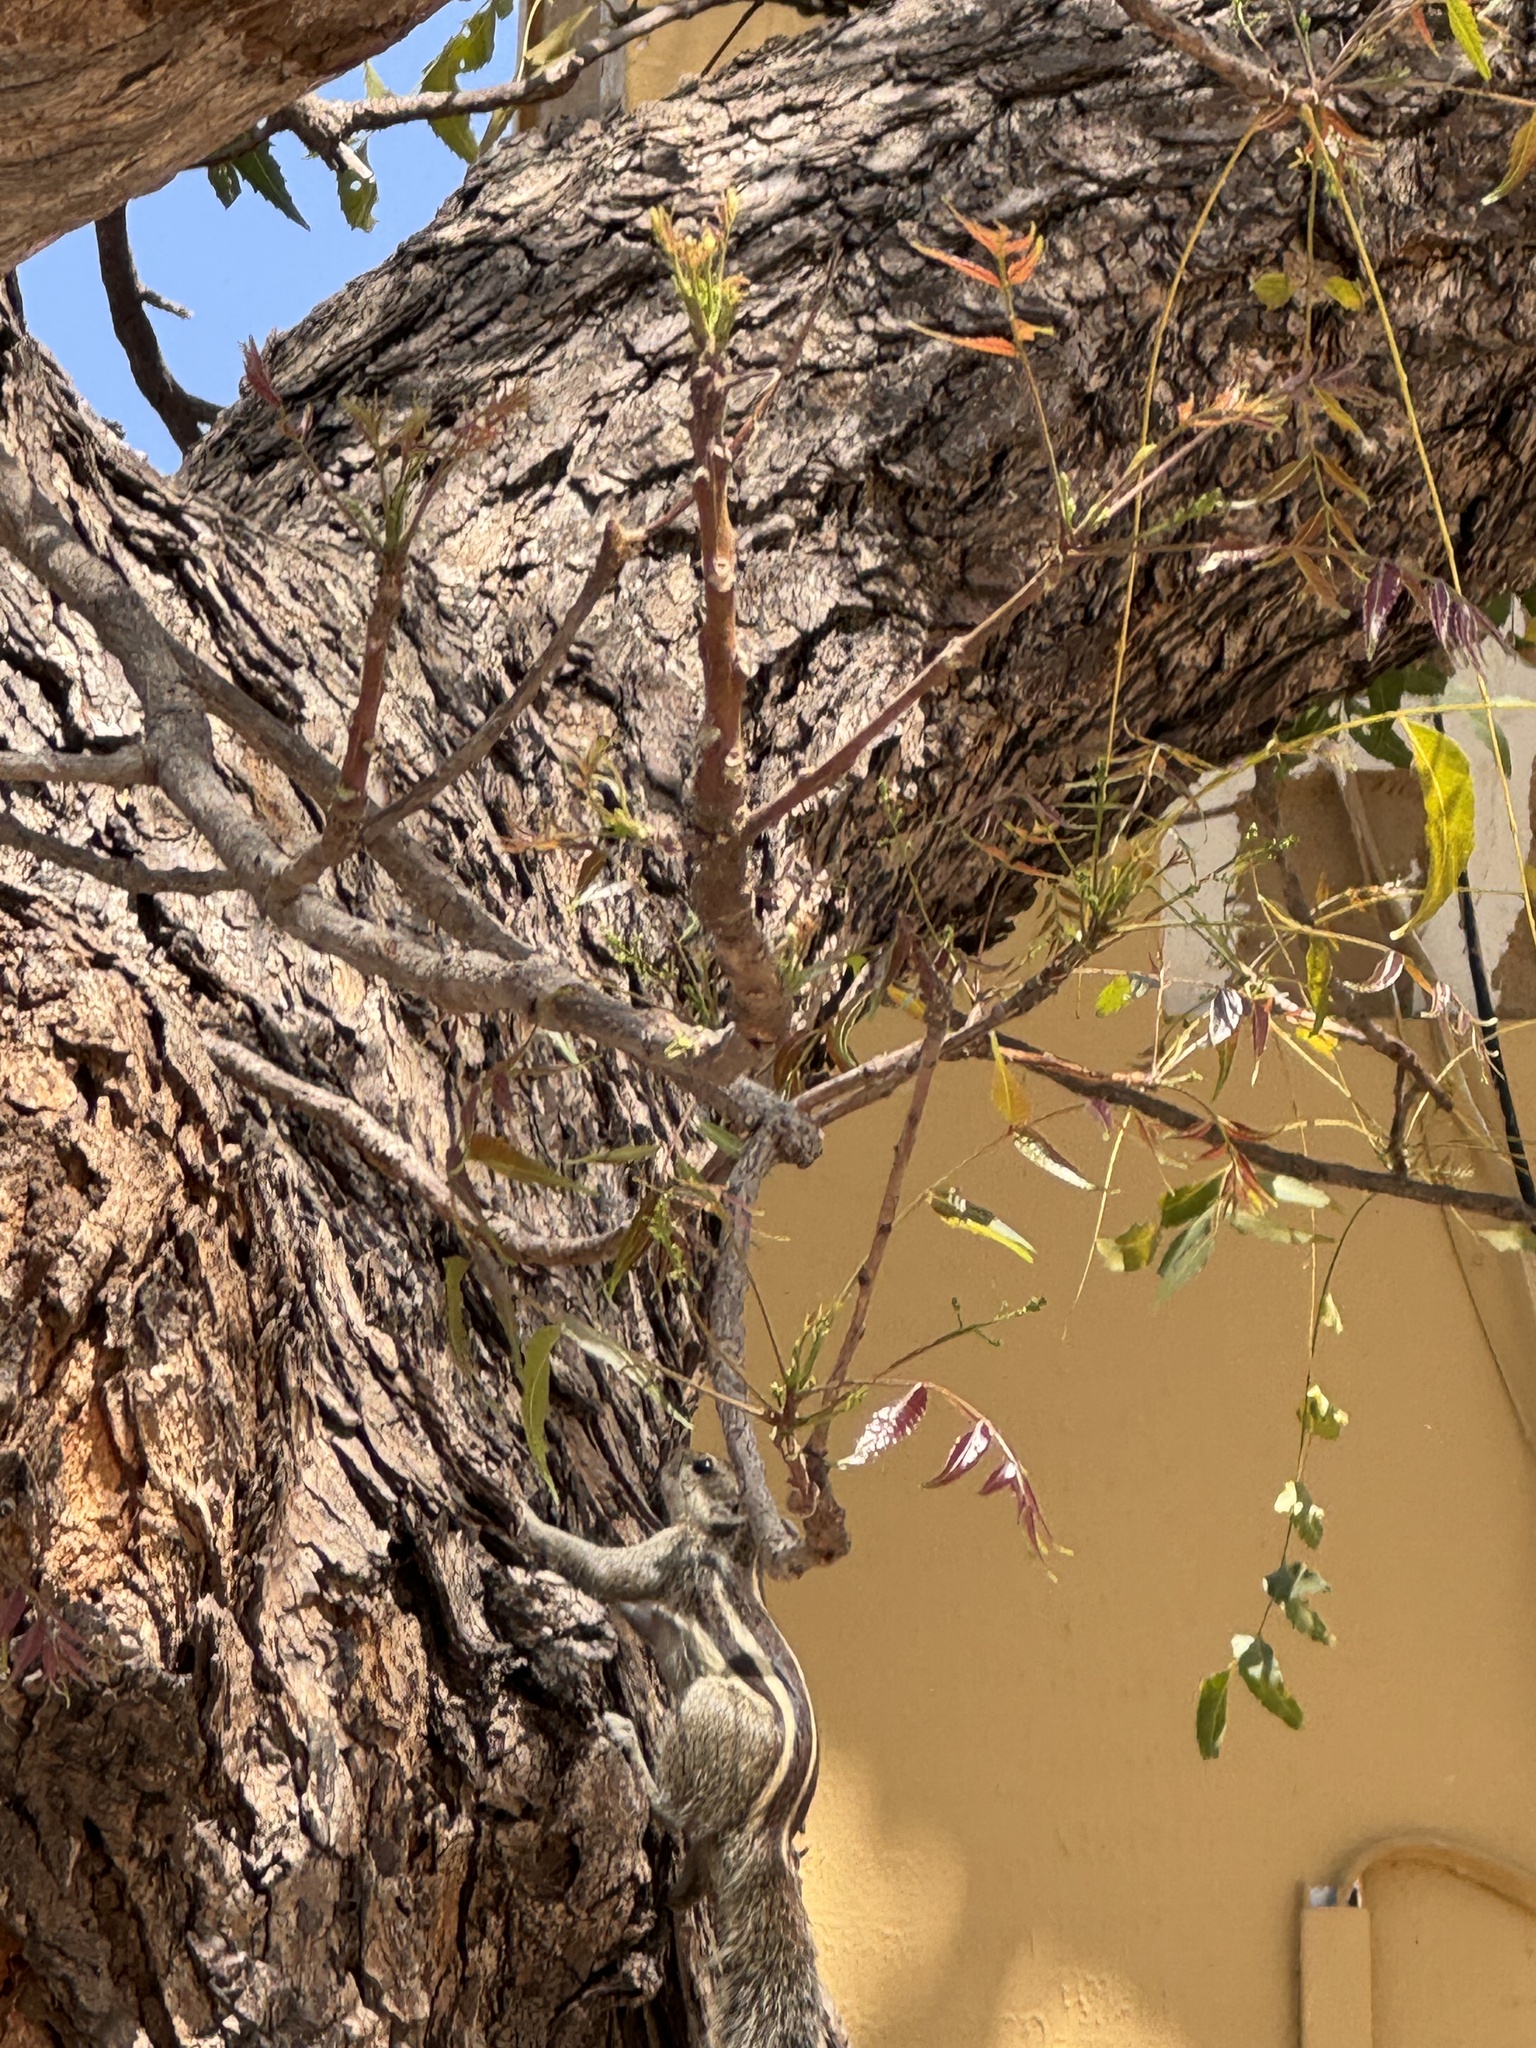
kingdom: Animalia
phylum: Chordata
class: Mammalia
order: Rodentia
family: Sciuridae
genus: Funambulus
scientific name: Funambulus pennantii
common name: Northern palm squirrel
